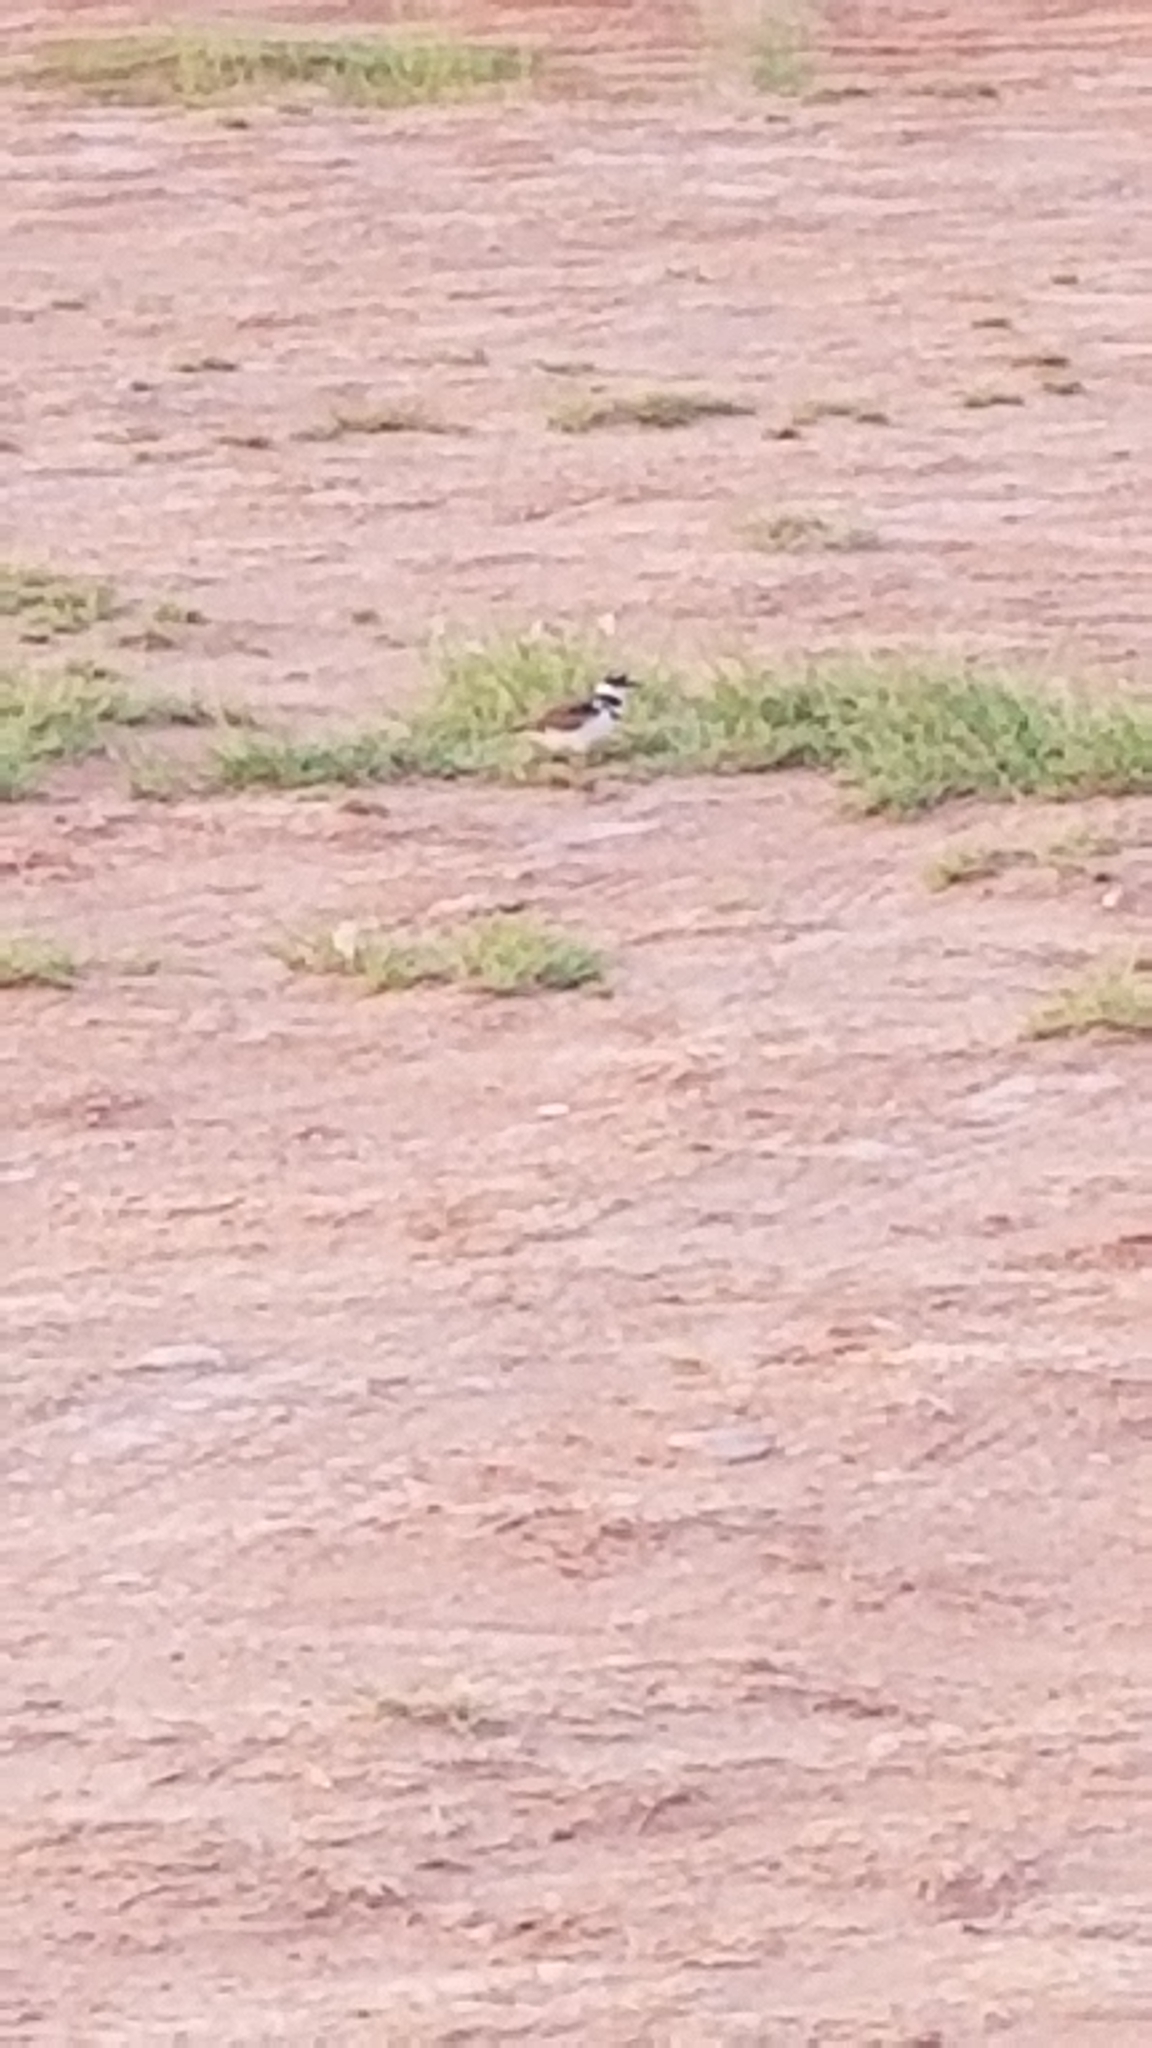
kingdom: Animalia
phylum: Chordata
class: Aves
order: Charadriiformes
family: Charadriidae
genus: Charadrius
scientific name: Charadrius vociferus
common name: Killdeer
